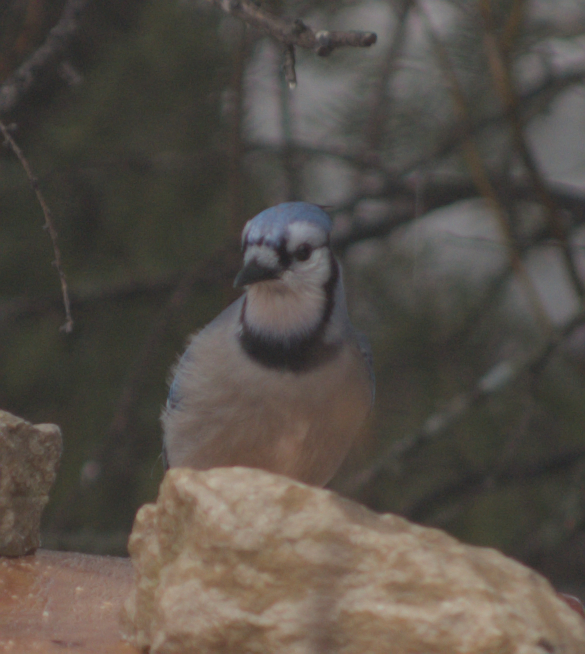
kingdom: Animalia
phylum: Chordata
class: Aves
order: Passeriformes
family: Corvidae
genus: Cyanocitta
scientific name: Cyanocitta cristata
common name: Blue jay
